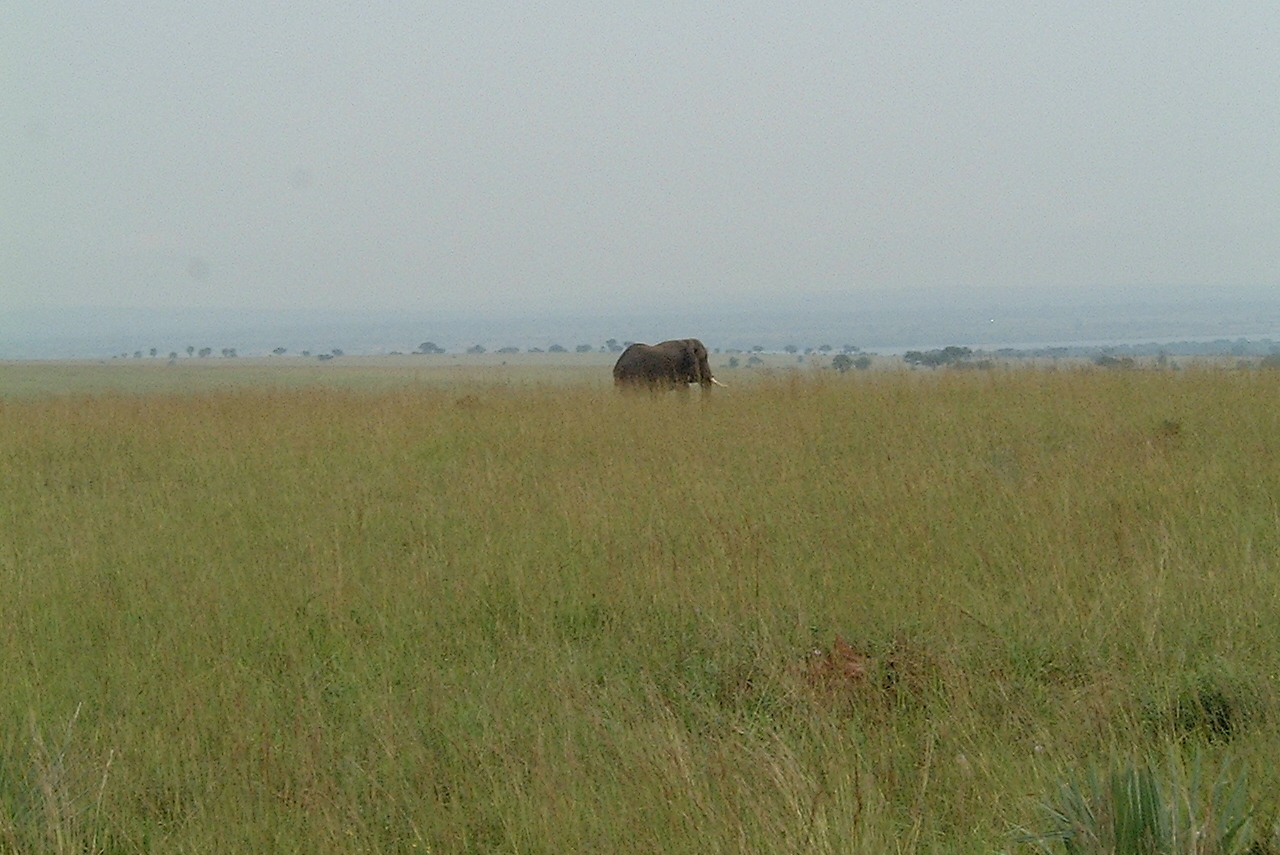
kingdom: Animalia
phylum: Chordata
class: Mammalia
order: Proboscidea
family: Elephantidae
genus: Loxodonta
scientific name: Loxodonta africana
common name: African elephant
